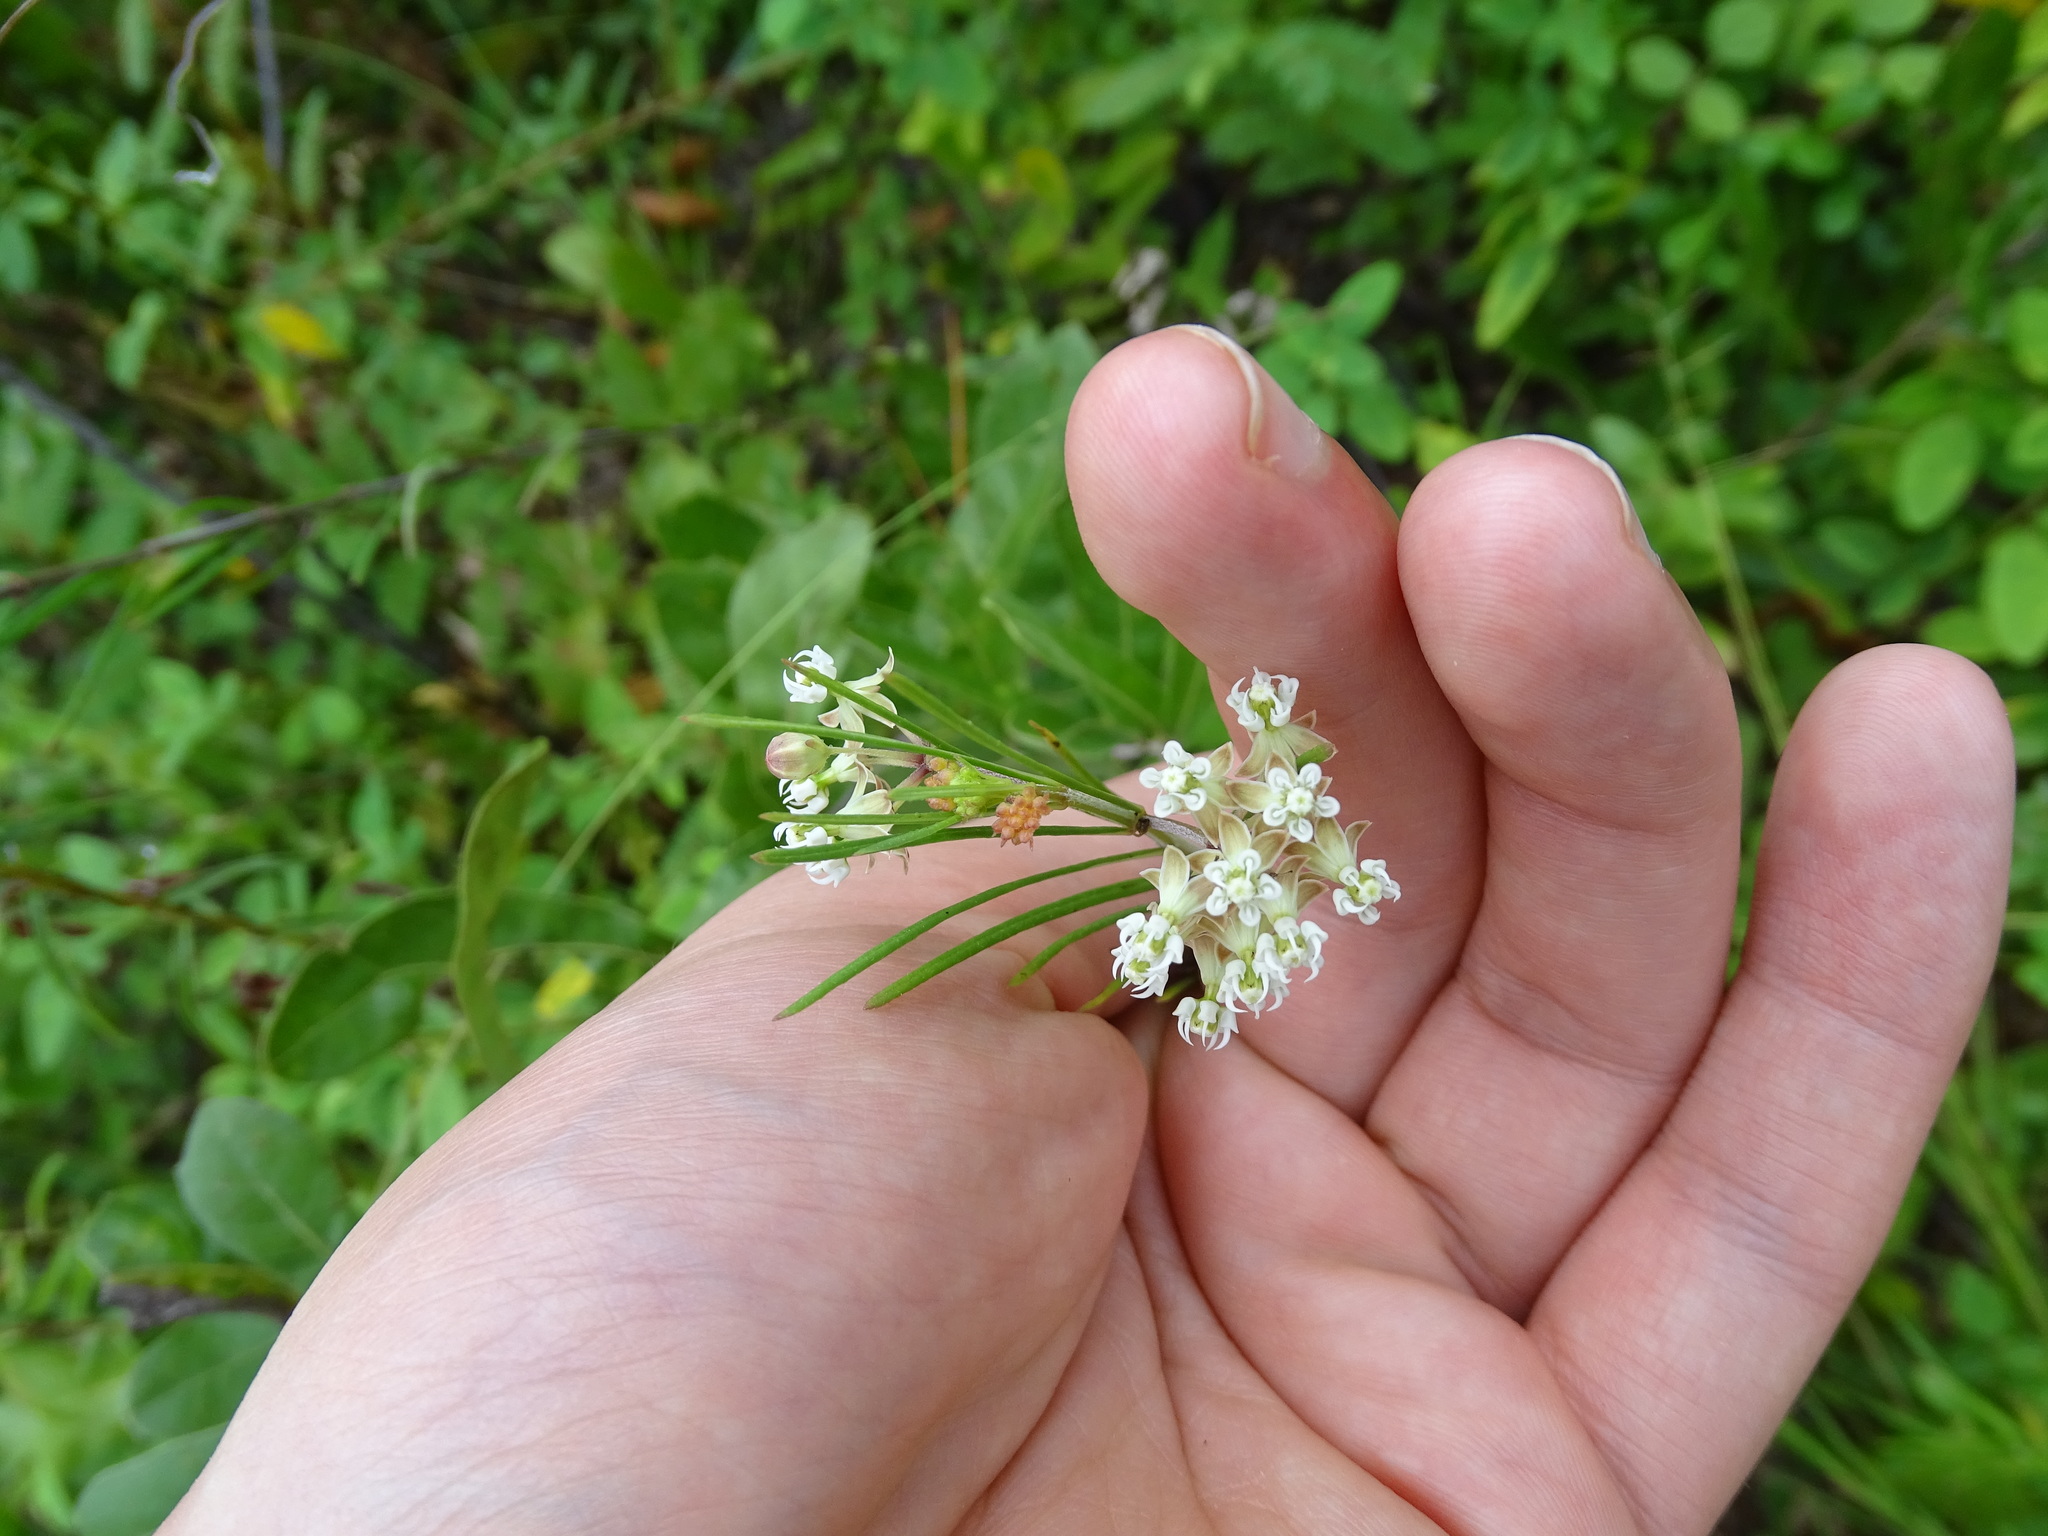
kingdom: Plantae
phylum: Tracheophyta
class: Magnoliopsida
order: Gentianales
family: Apocynaceae
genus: Asclepias
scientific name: Asclepias verticillata
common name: Eastern whorled milkweed
